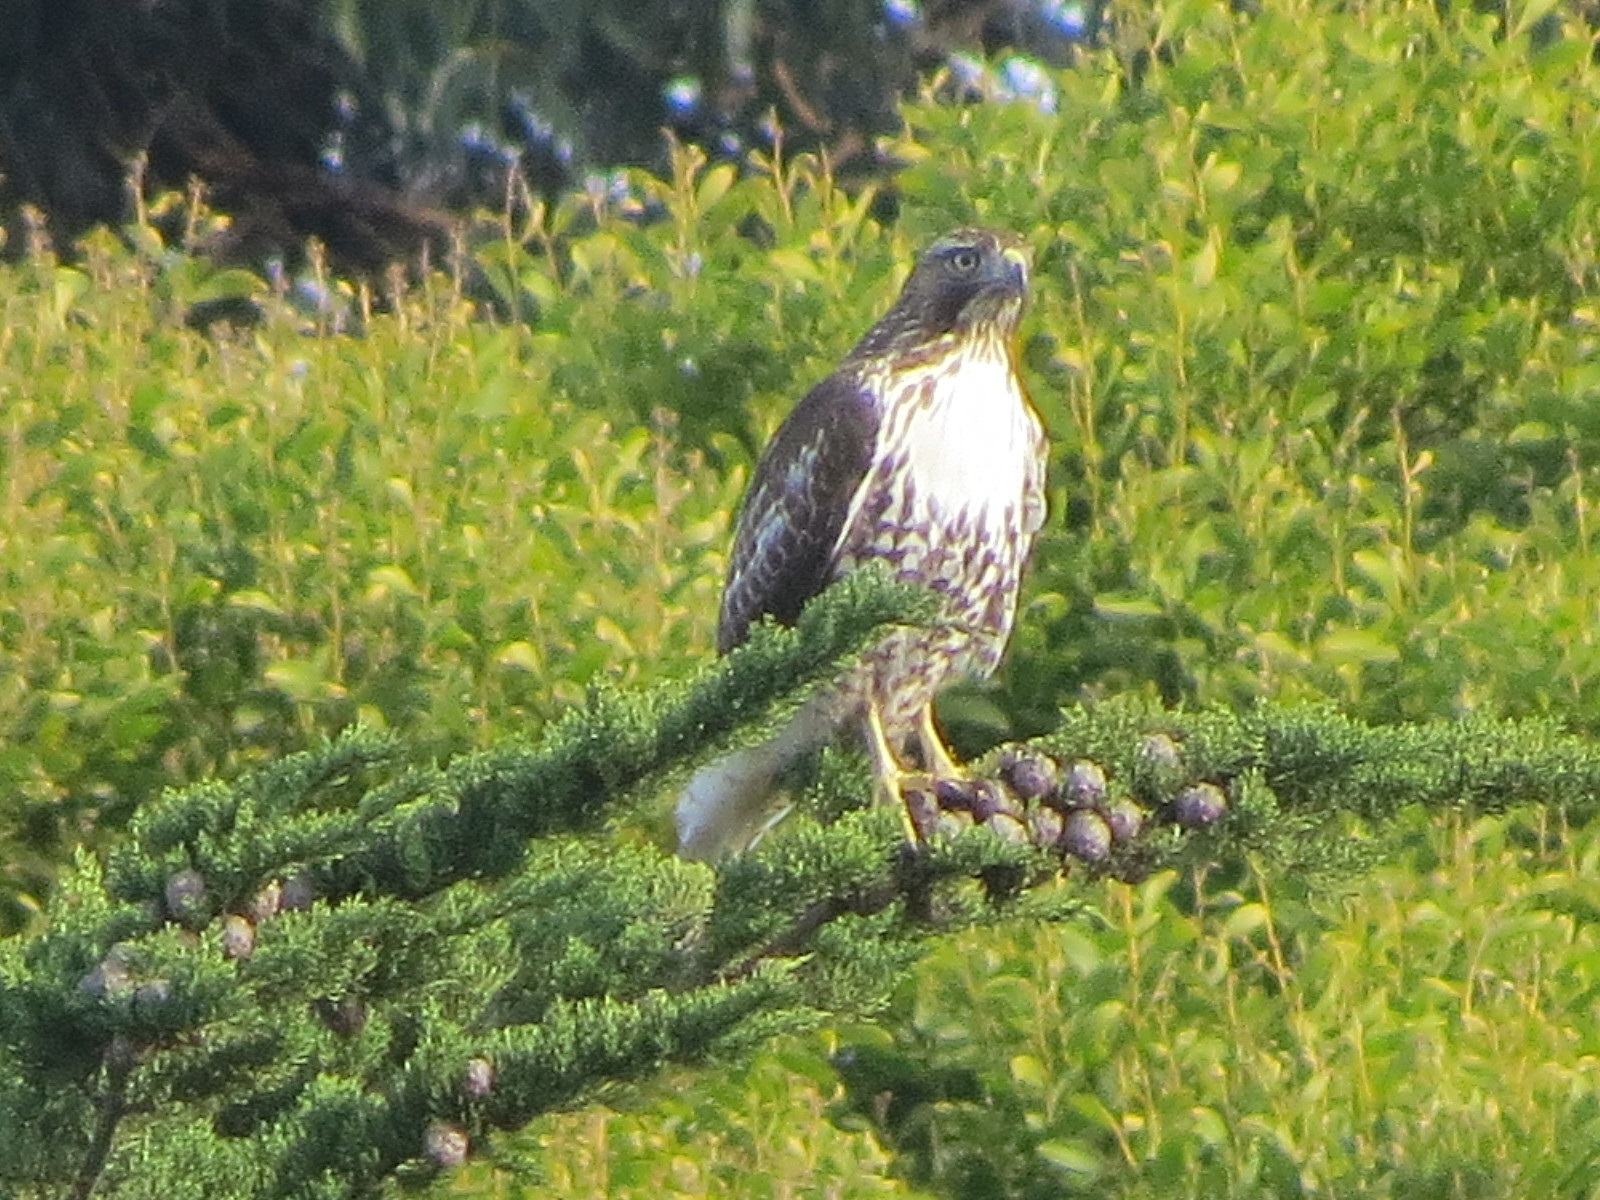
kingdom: Animalia
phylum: Chordata
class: Aves
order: Accipitriformes
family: Accipitridae
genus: Buteo
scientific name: Buteo jamaicensis
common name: Red-tailed hawk
